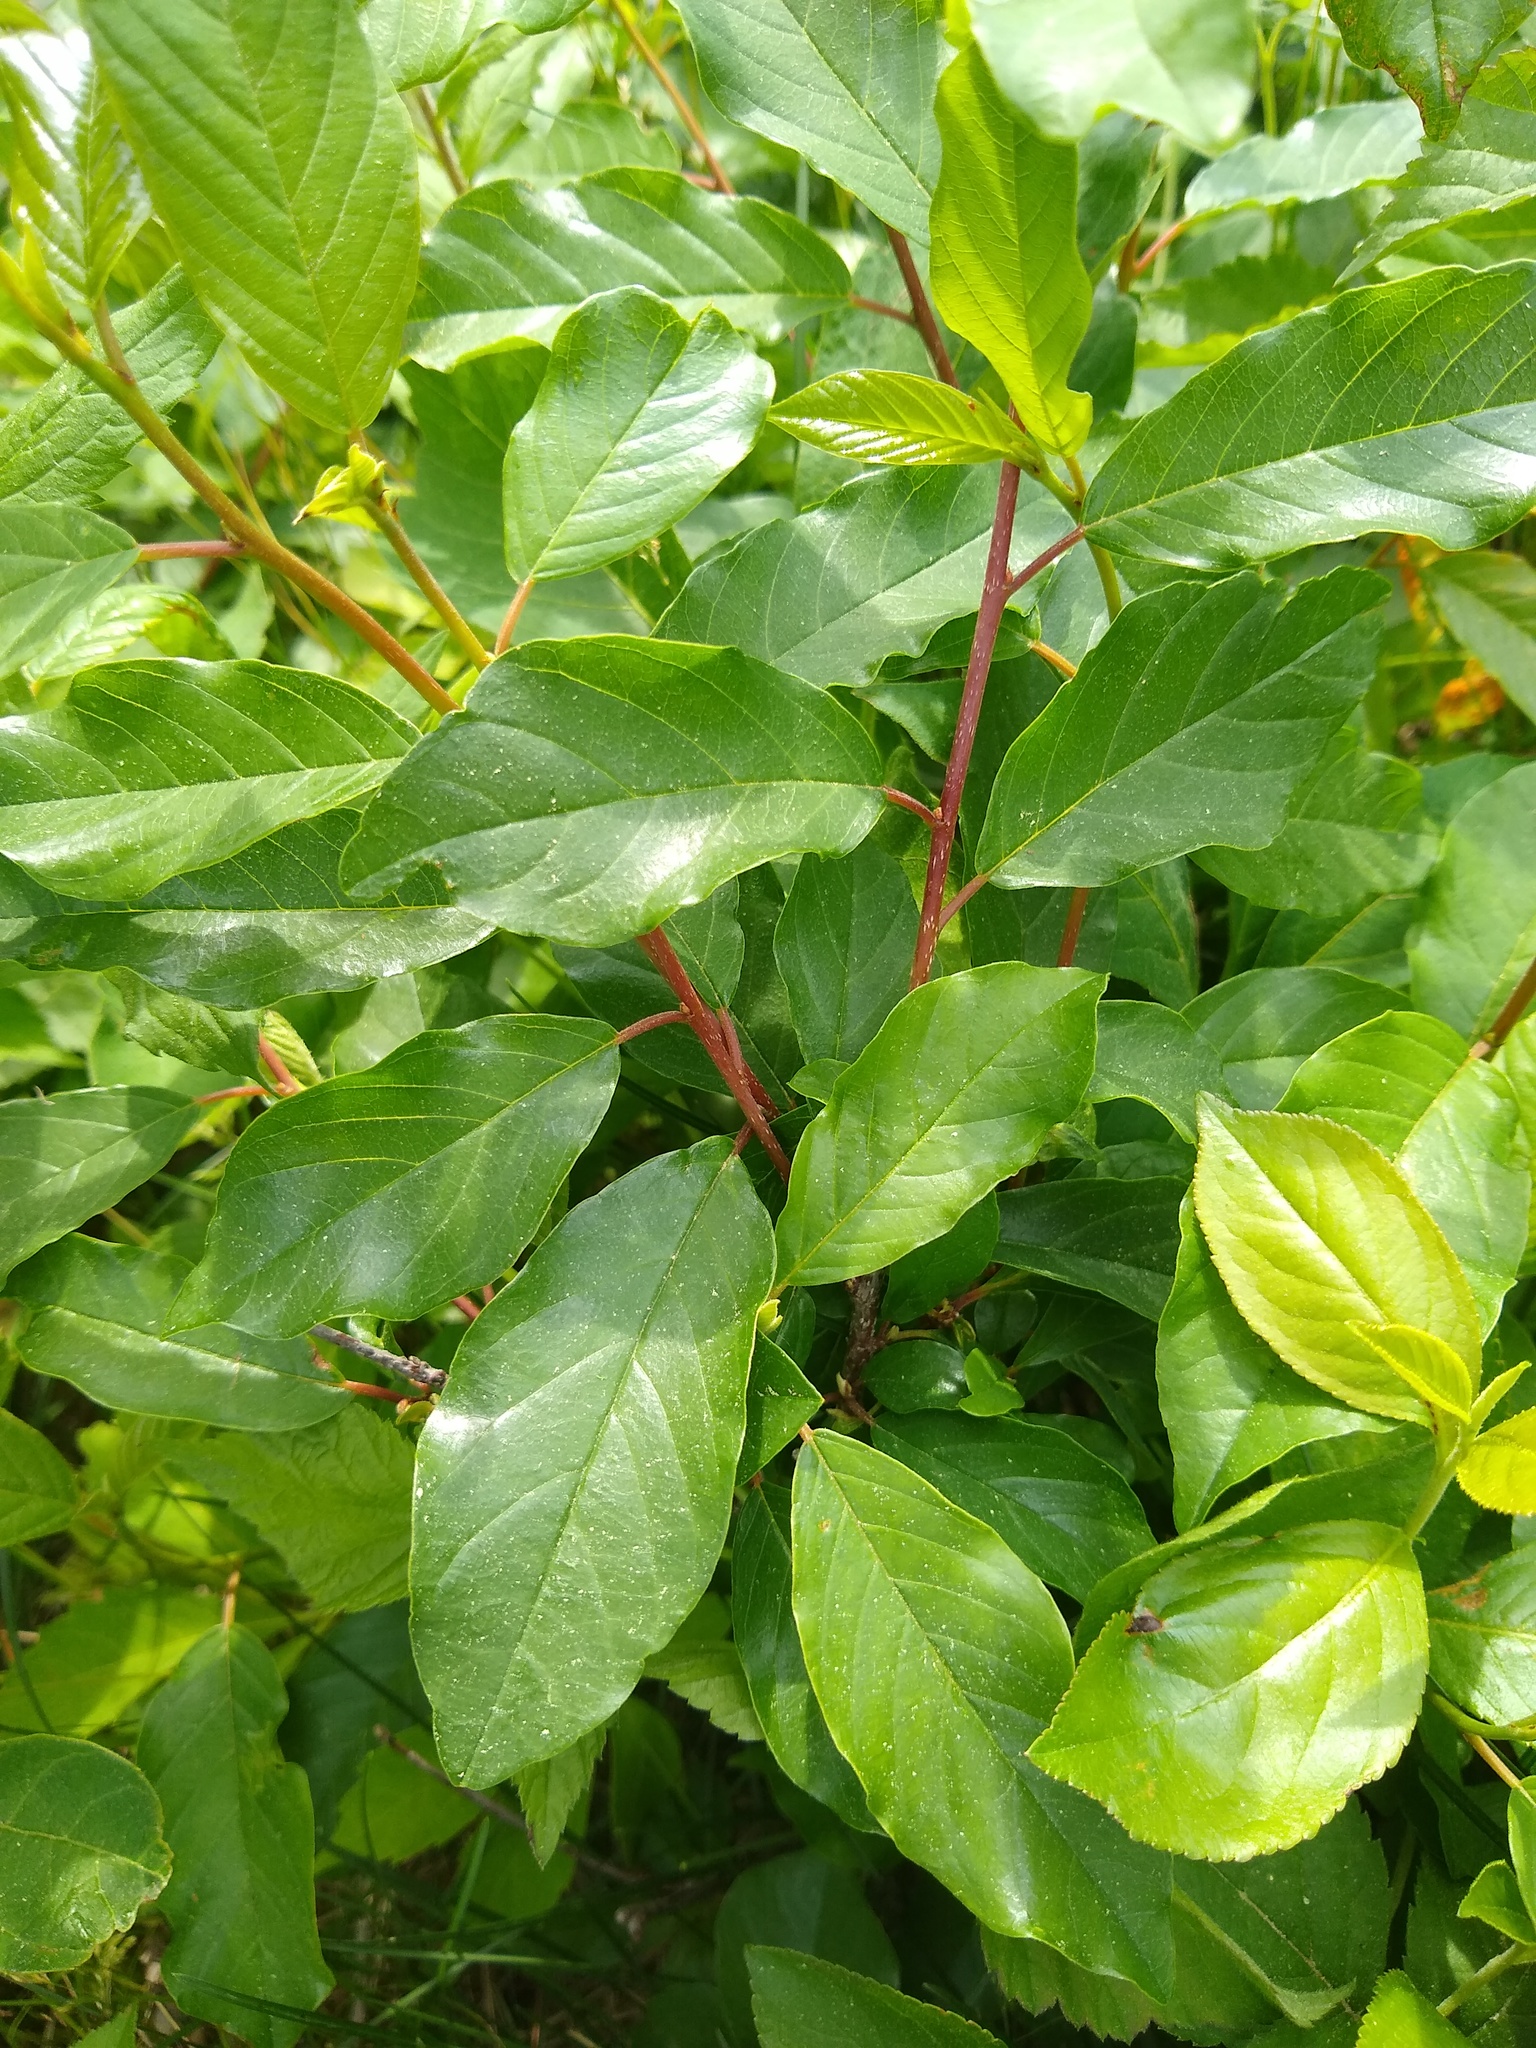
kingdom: Plantae
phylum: Tracheophyta
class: Magnoliopsida
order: Rosales
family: Rhamnaceae
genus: Frangula
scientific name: Frangula alnus
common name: Alder buckthorn
